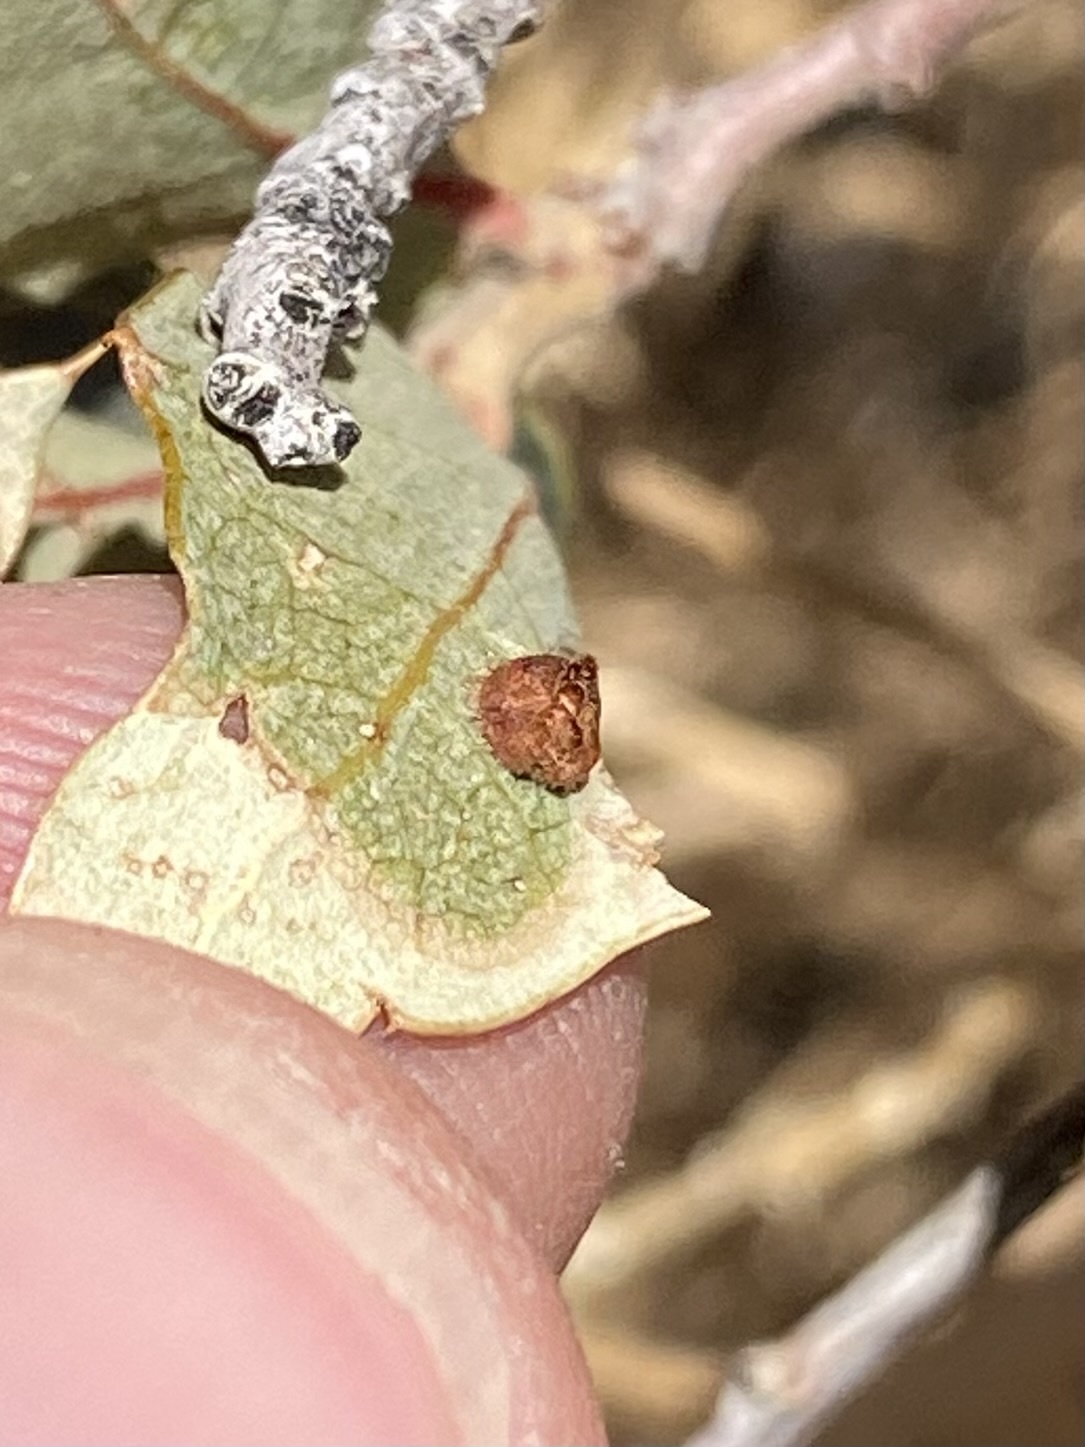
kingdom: Animalia
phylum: Arthropoda
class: Insecta
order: Hymenoptera
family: Cynipidae
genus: Andricus
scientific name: Andricus
